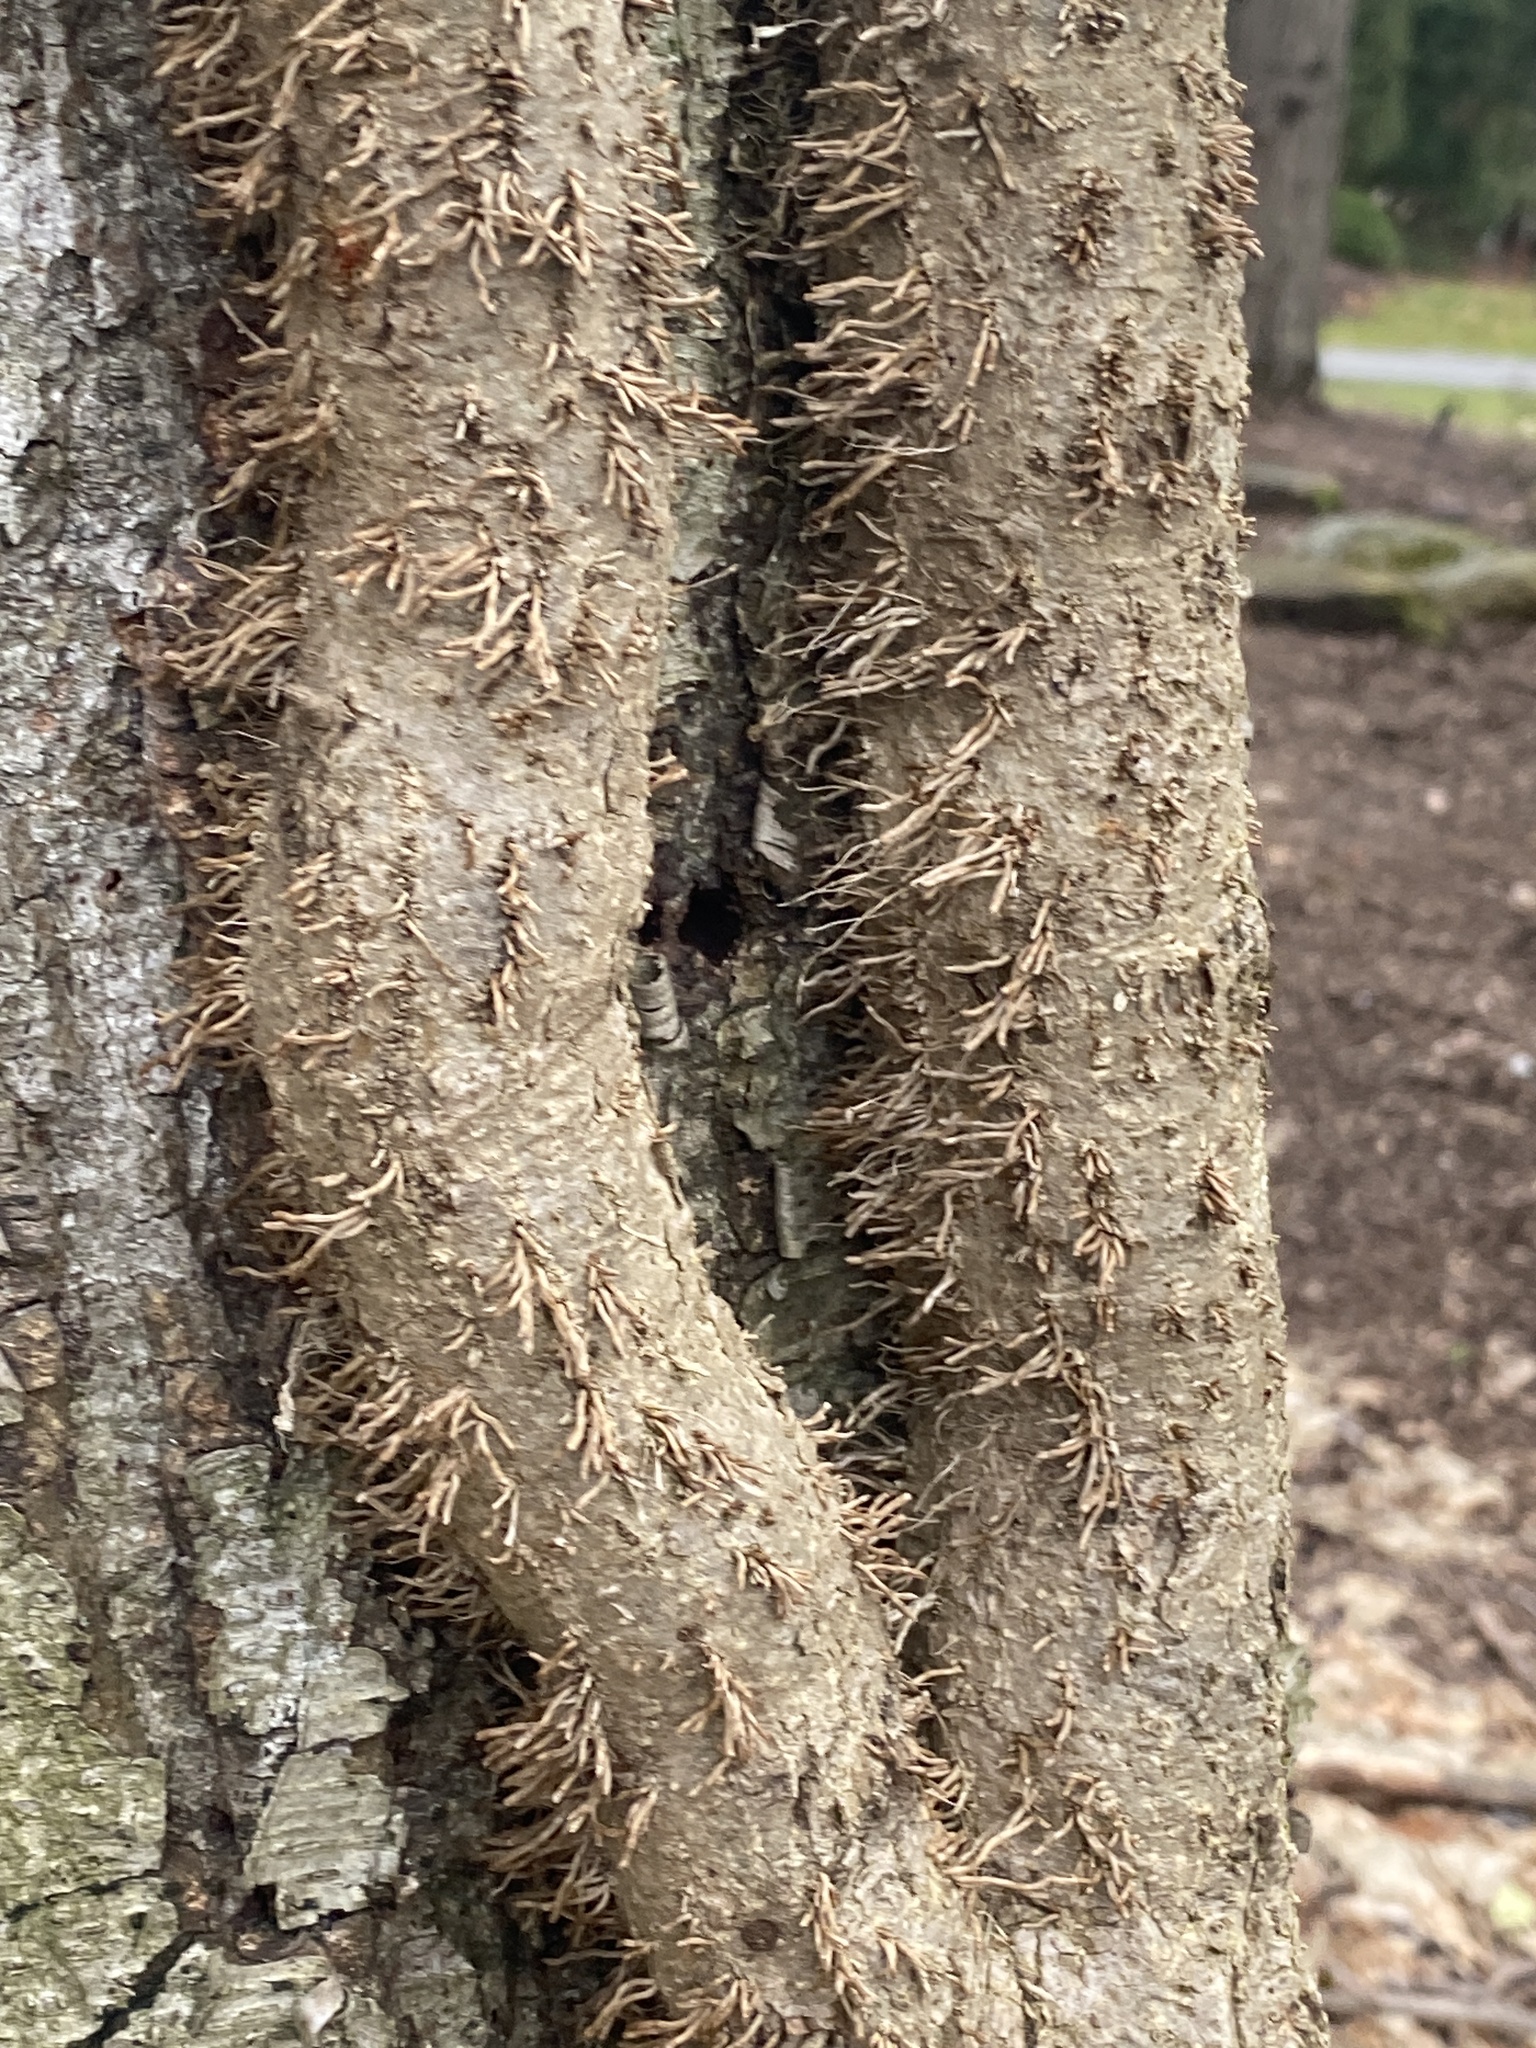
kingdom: Plantae
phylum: Tracheophyta
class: Magnoliopsida
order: Apiales
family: Araliaceae
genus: Hedera
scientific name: Hedera
